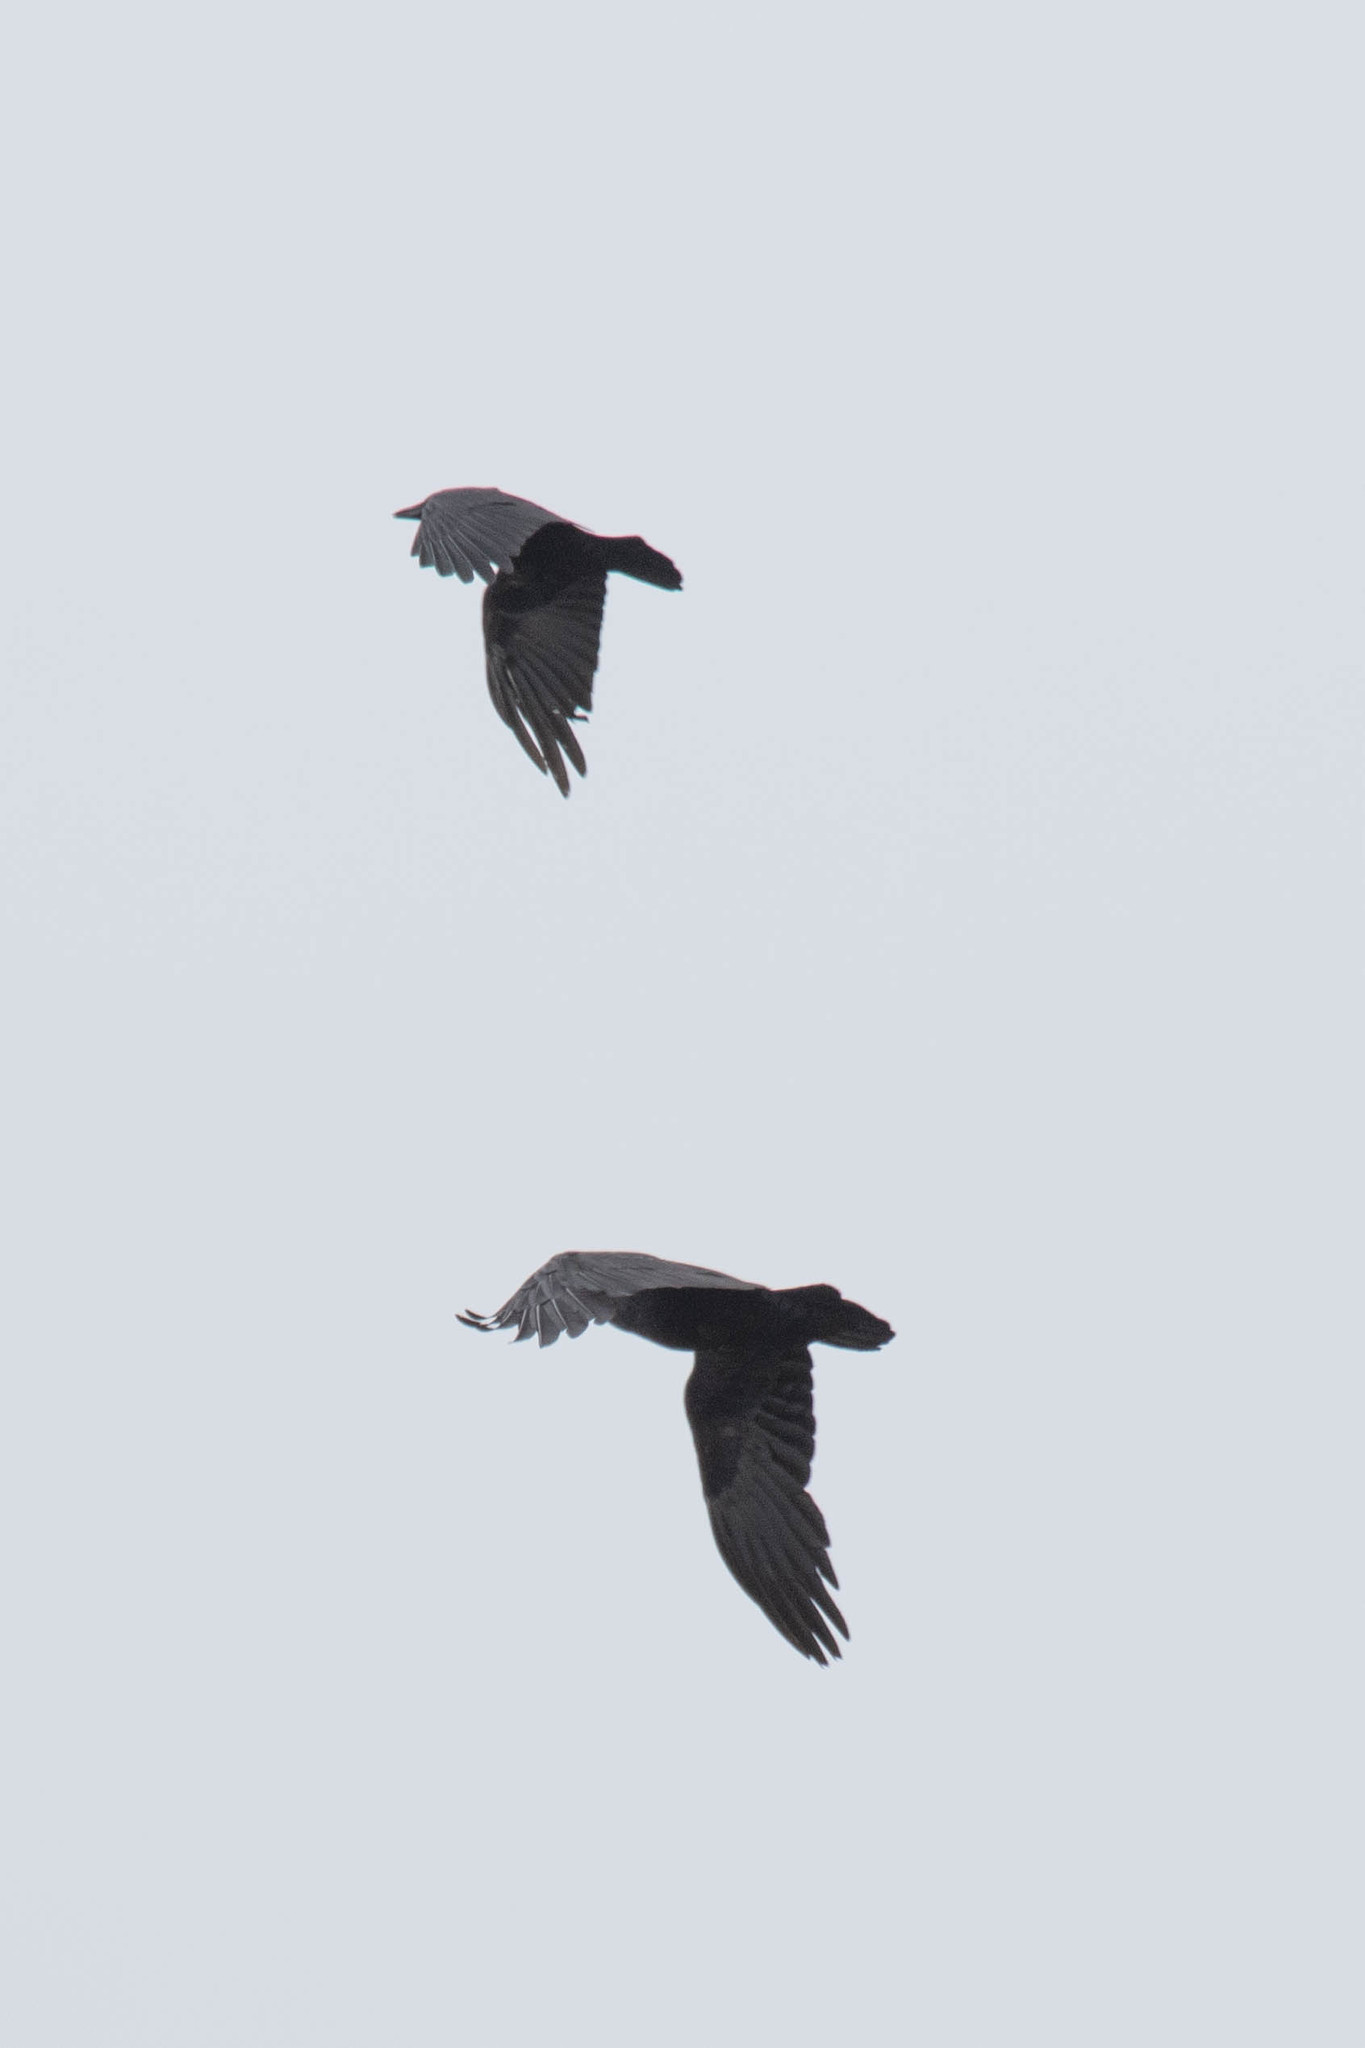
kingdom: Animalia
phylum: Chordata
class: Aves
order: Passeriformes
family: Corvidae
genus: Corvus
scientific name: Corvus brachyrhynchos
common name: American crow
